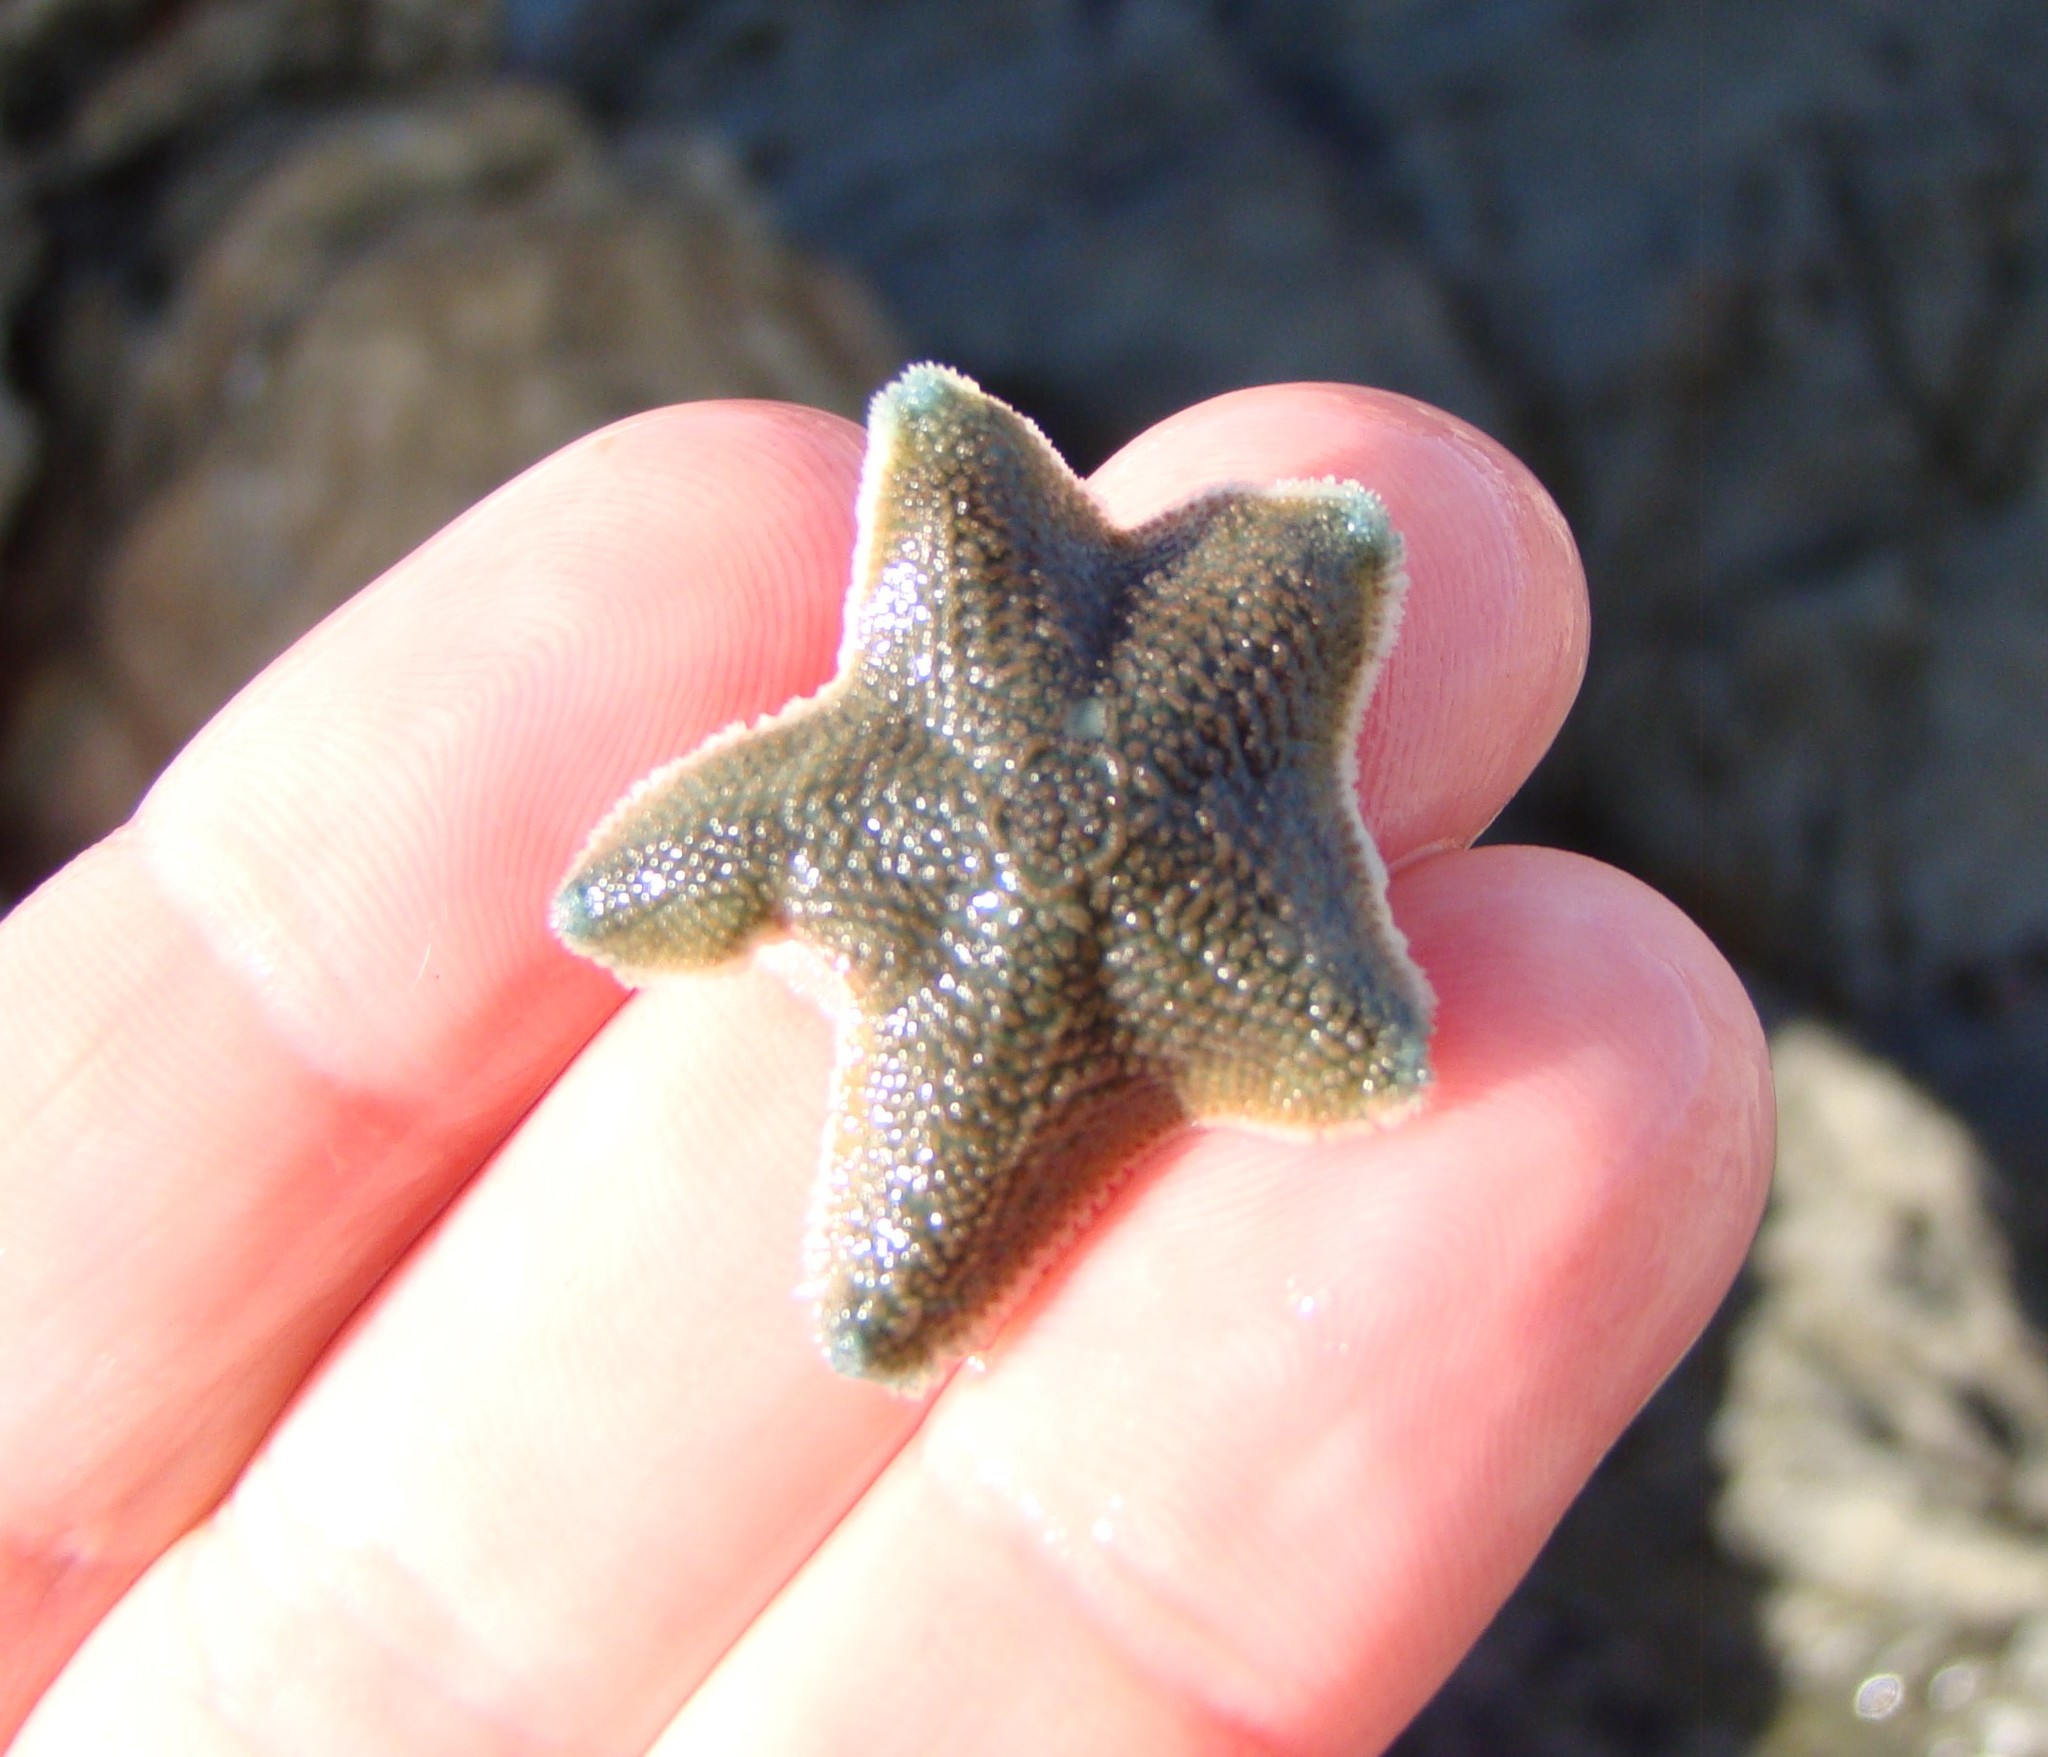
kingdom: Animalia
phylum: Echinodermata
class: Asteroidea
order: Valvatida
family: Asterinidae
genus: Patiriella
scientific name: Patiriella regularis
